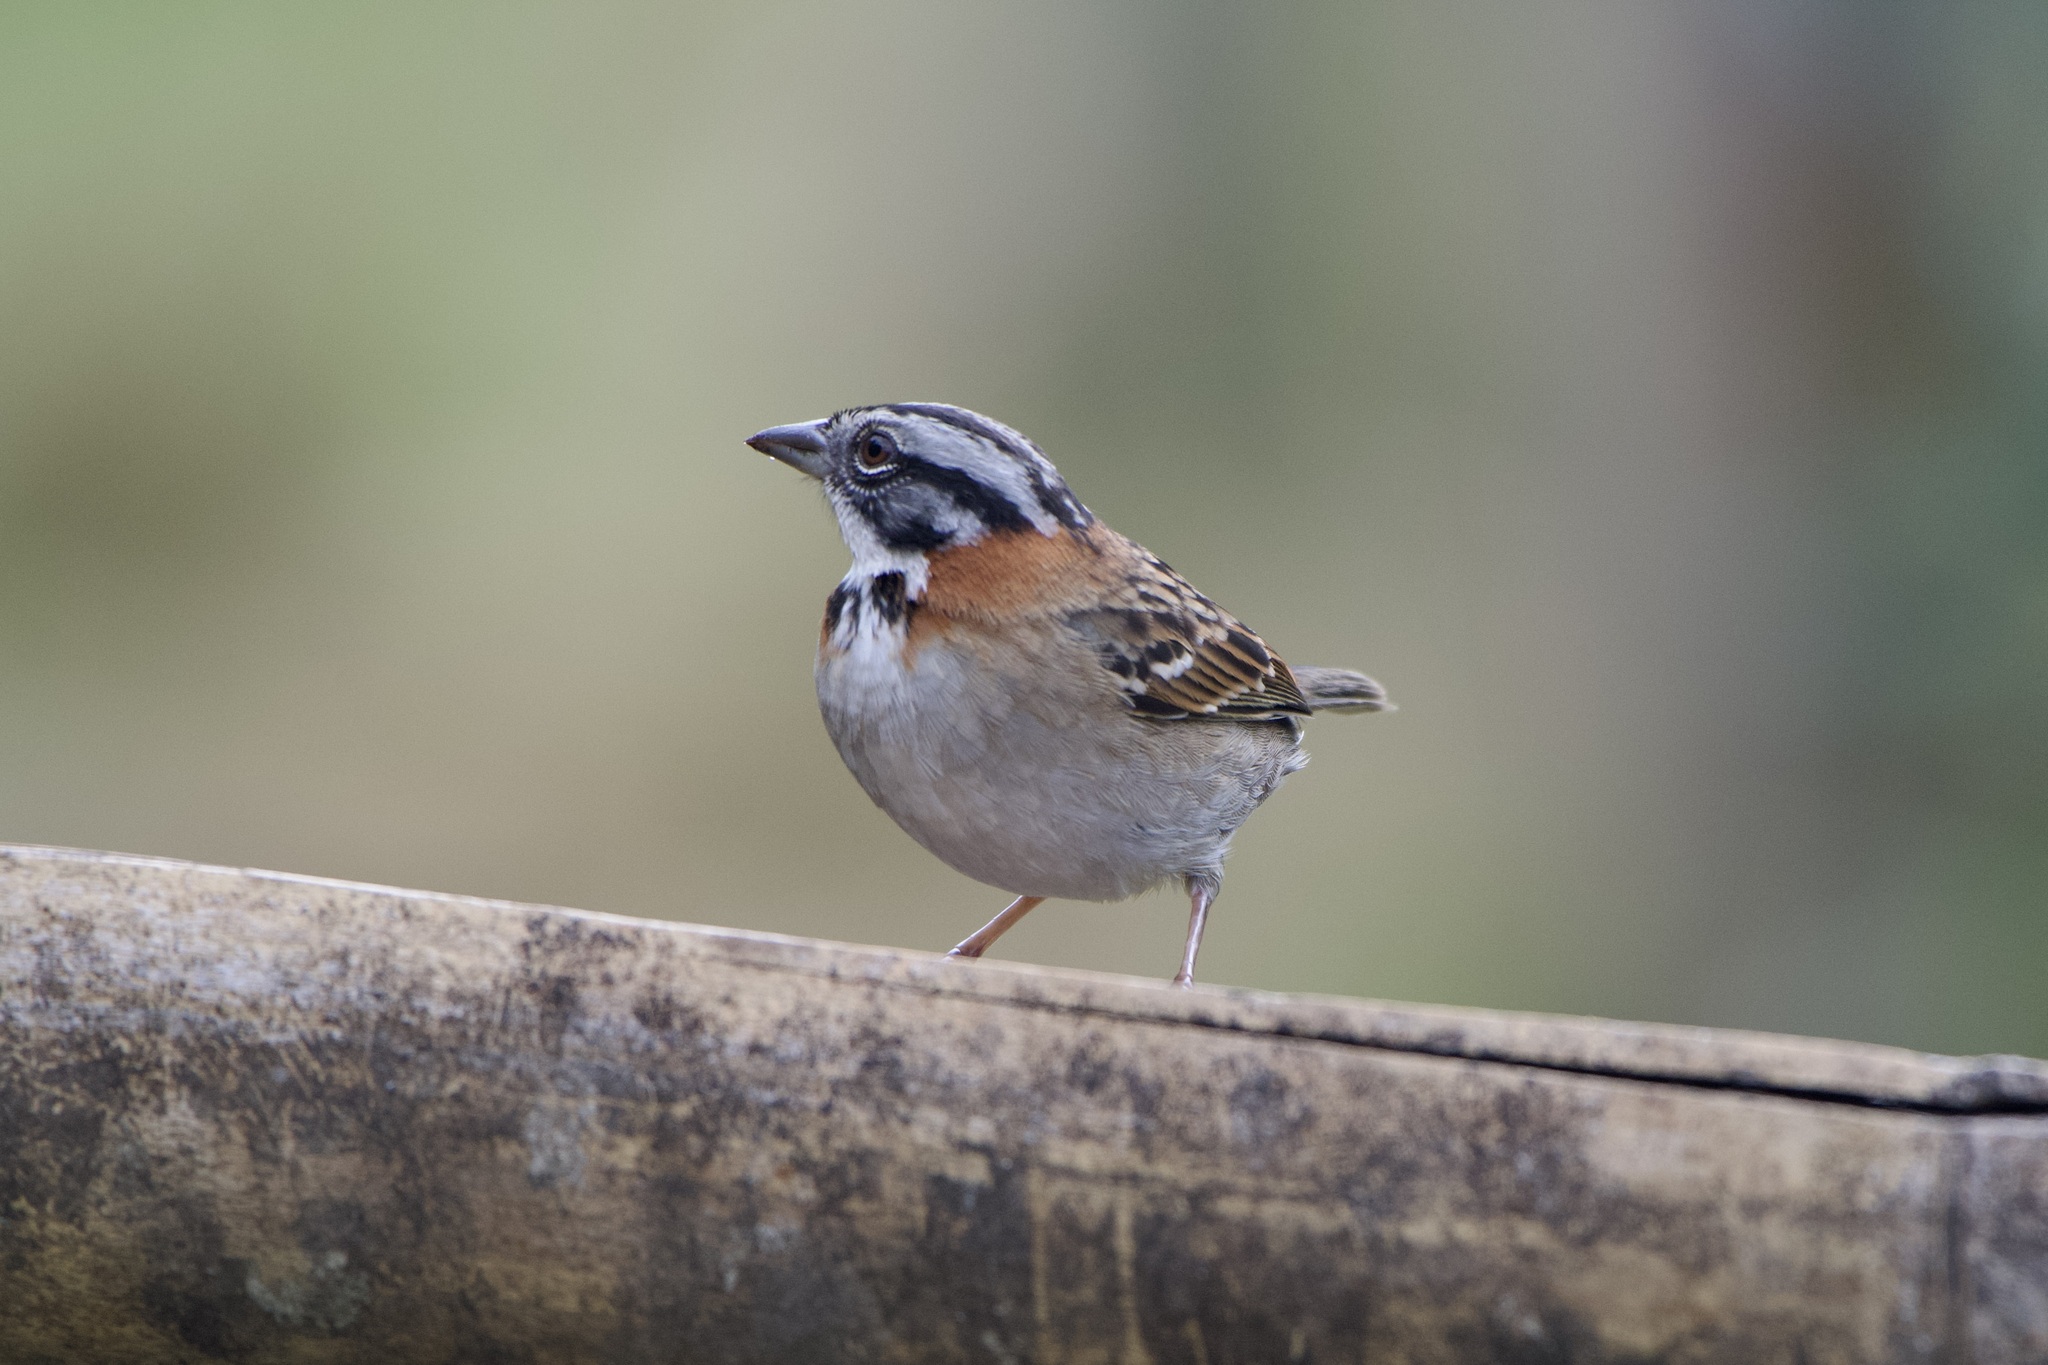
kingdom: Animalia
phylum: Chordata
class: Aves
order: Passeriformes
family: Passerellidae
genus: Zonotrichia
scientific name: Zonotrichia capensis
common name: Rufous-collared sparrow
